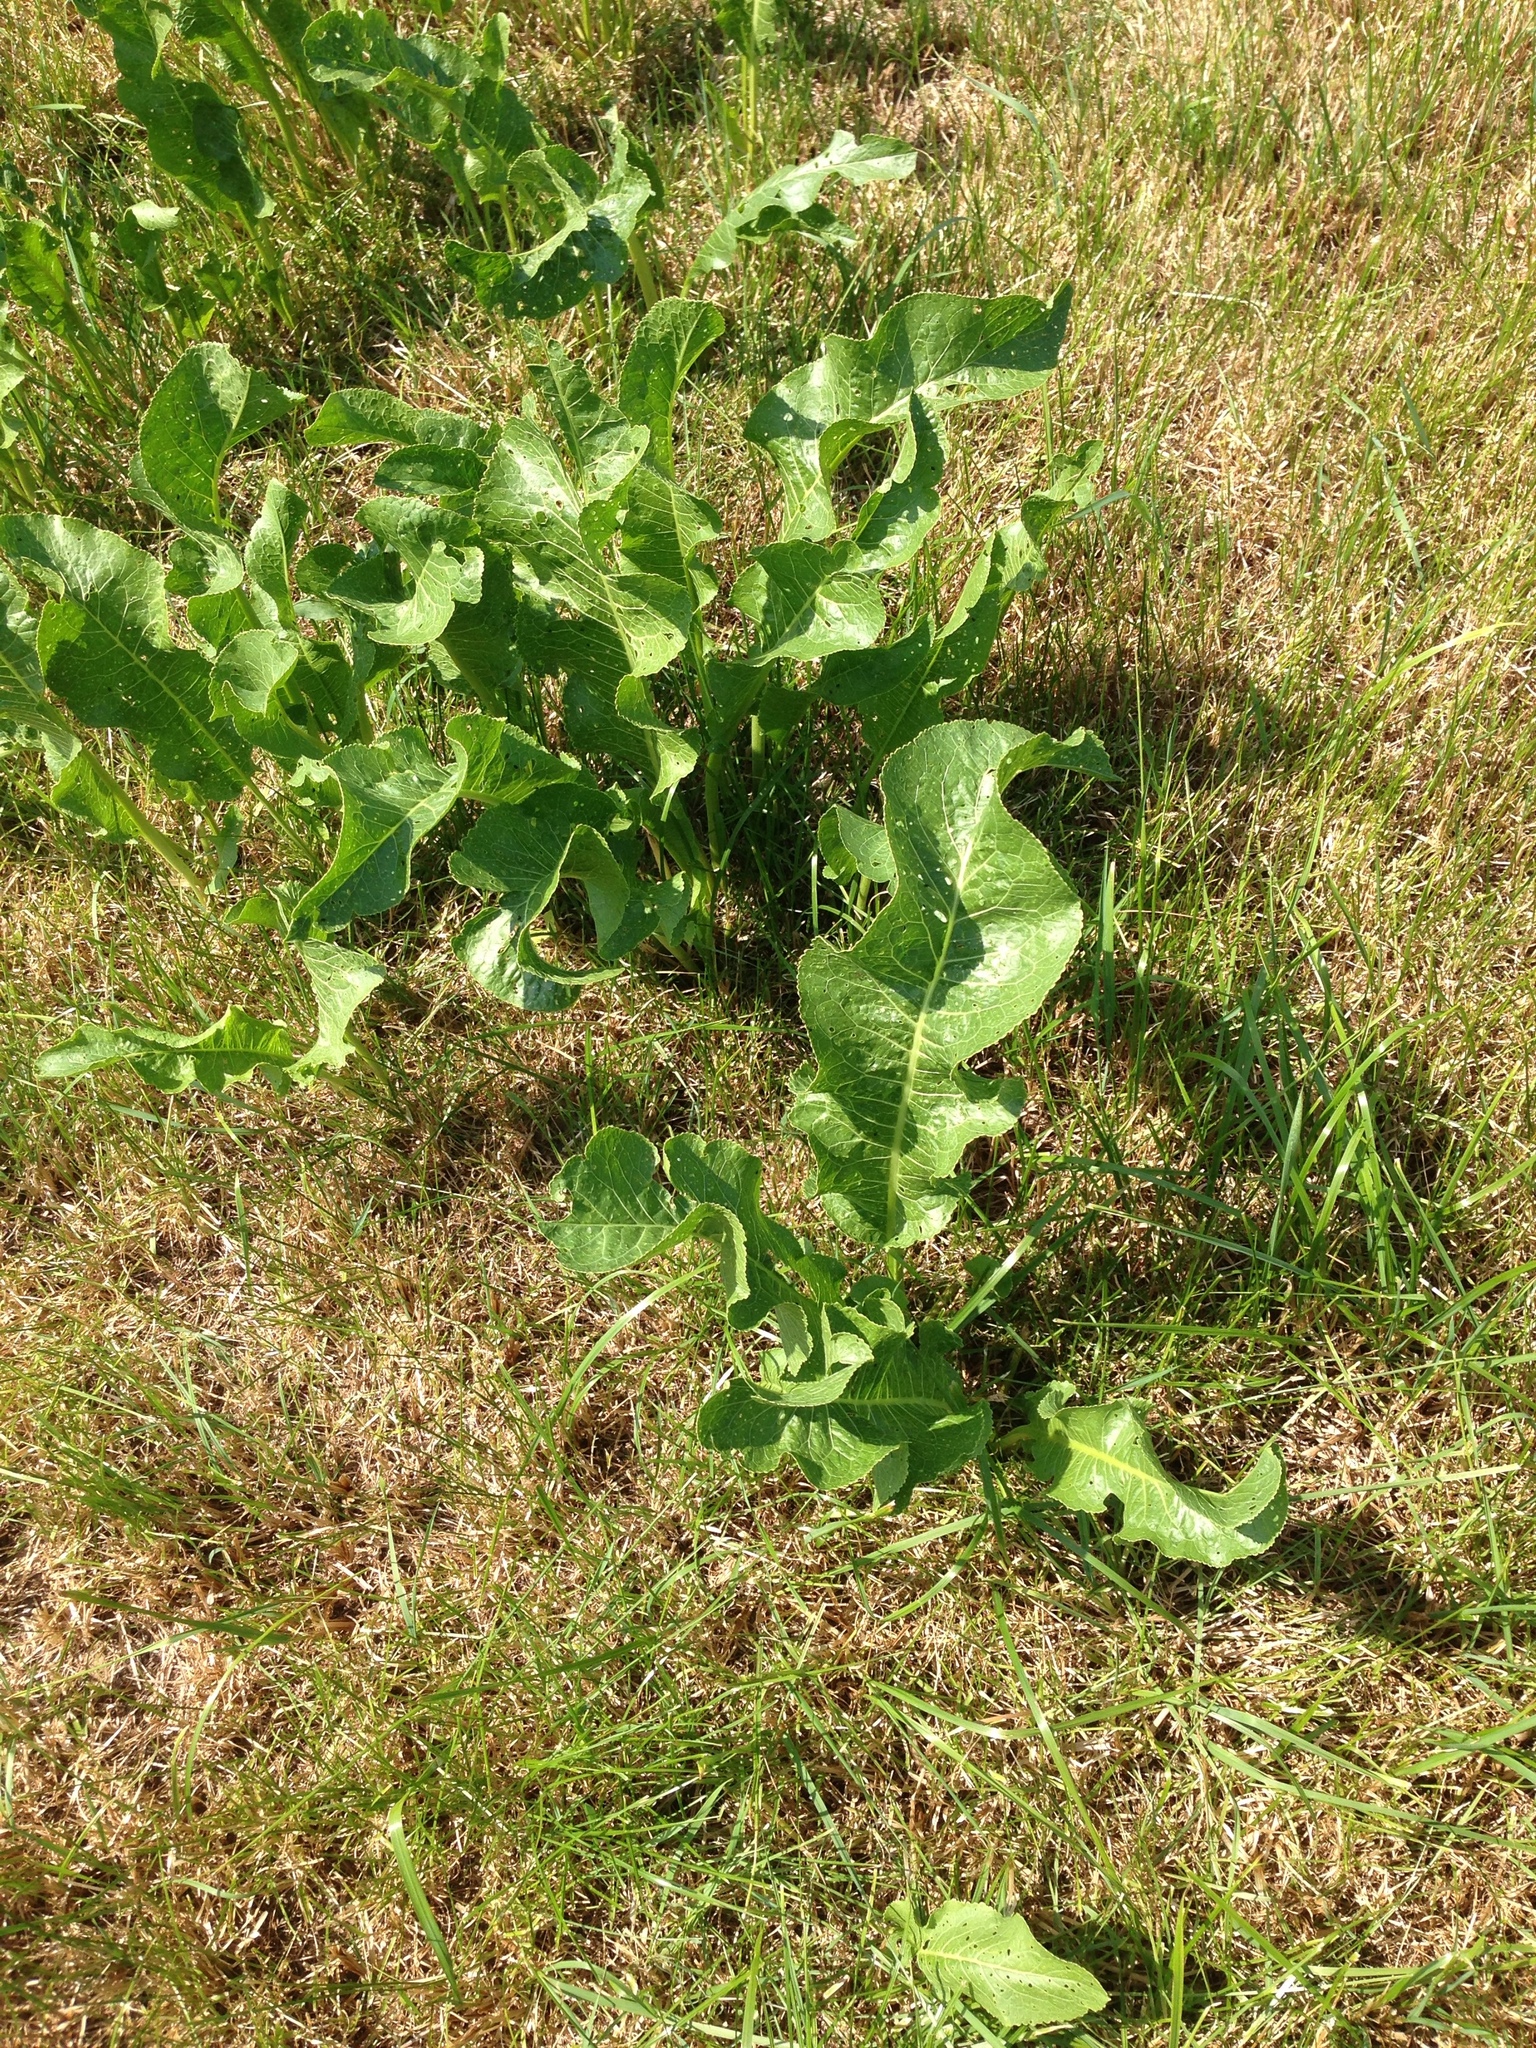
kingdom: Plantae
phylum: Tracheophyta
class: Magnoliopsida
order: Brassicales
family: Brassicaceae
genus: Armoracia
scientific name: Armoracia rusticana
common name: Horseradish
